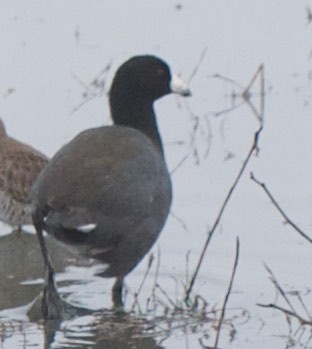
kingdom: Animalia
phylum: Chordata
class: Aves
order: Gruiformes
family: Rallidae
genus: Fulica
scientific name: Fulica americana
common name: American coot
